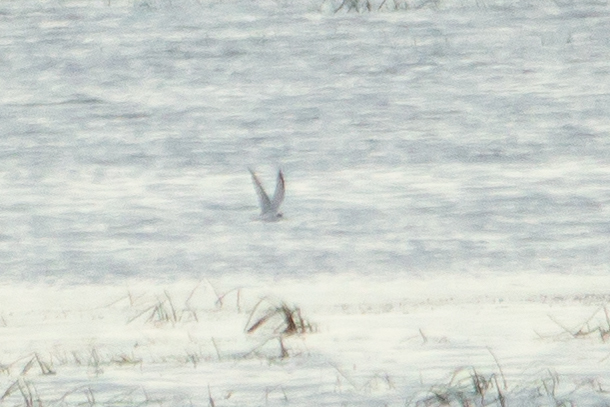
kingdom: Animalia
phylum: Chordata
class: Aves
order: Charadriiformes
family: Laridae
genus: Sternula
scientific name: Sternula albifrons
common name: Little tern
